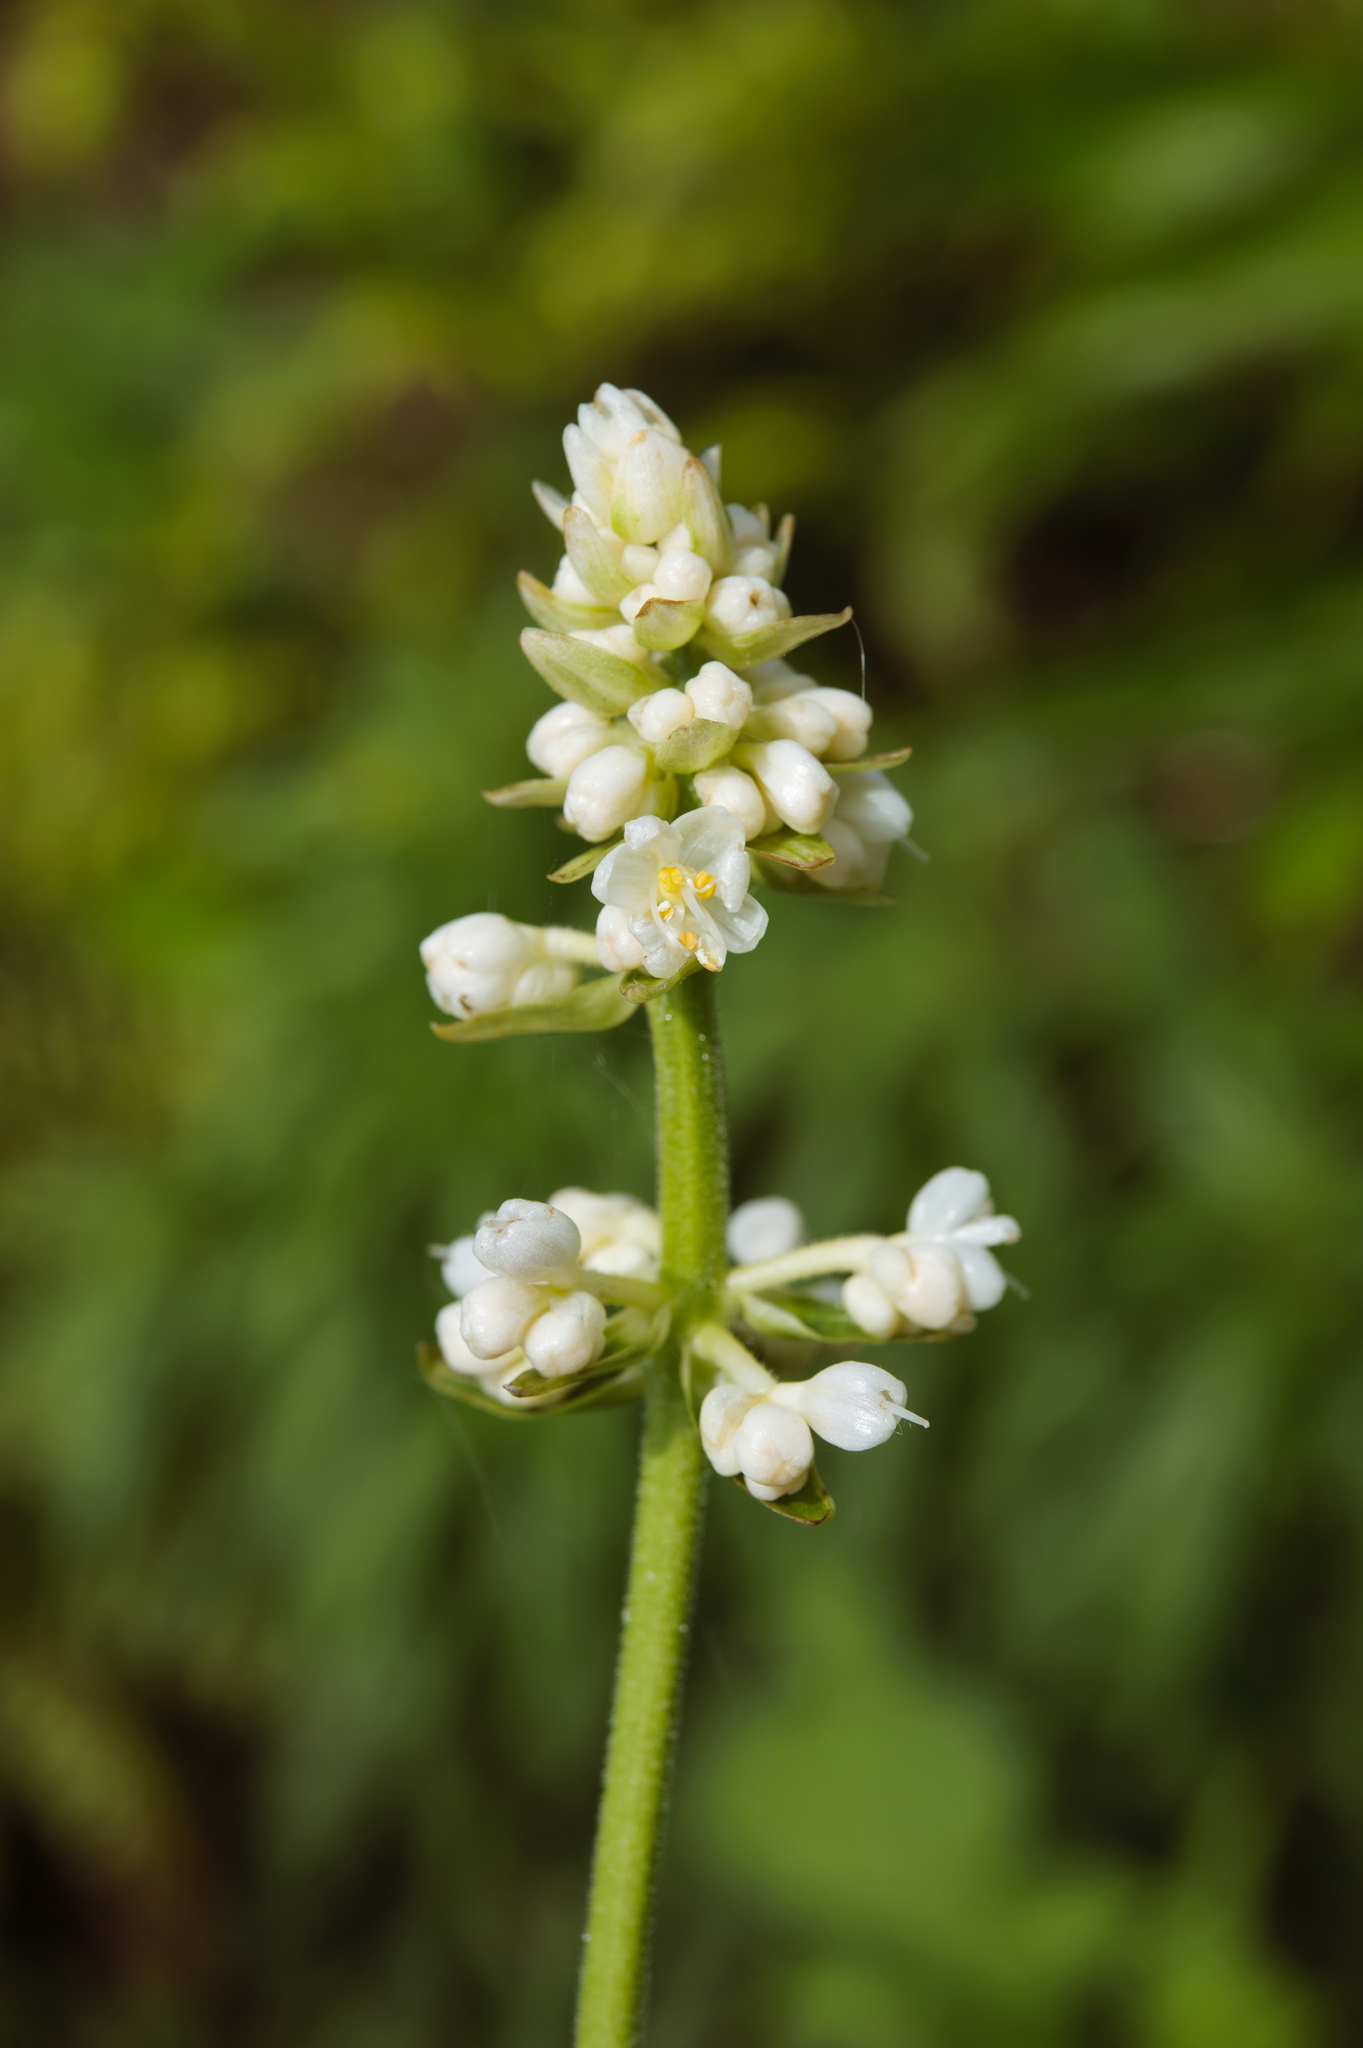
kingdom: Plantae
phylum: Tracheophyta
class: Liliopsida
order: Commelinales
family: Commelinaceae
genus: Pollia
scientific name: Pollia miranda
